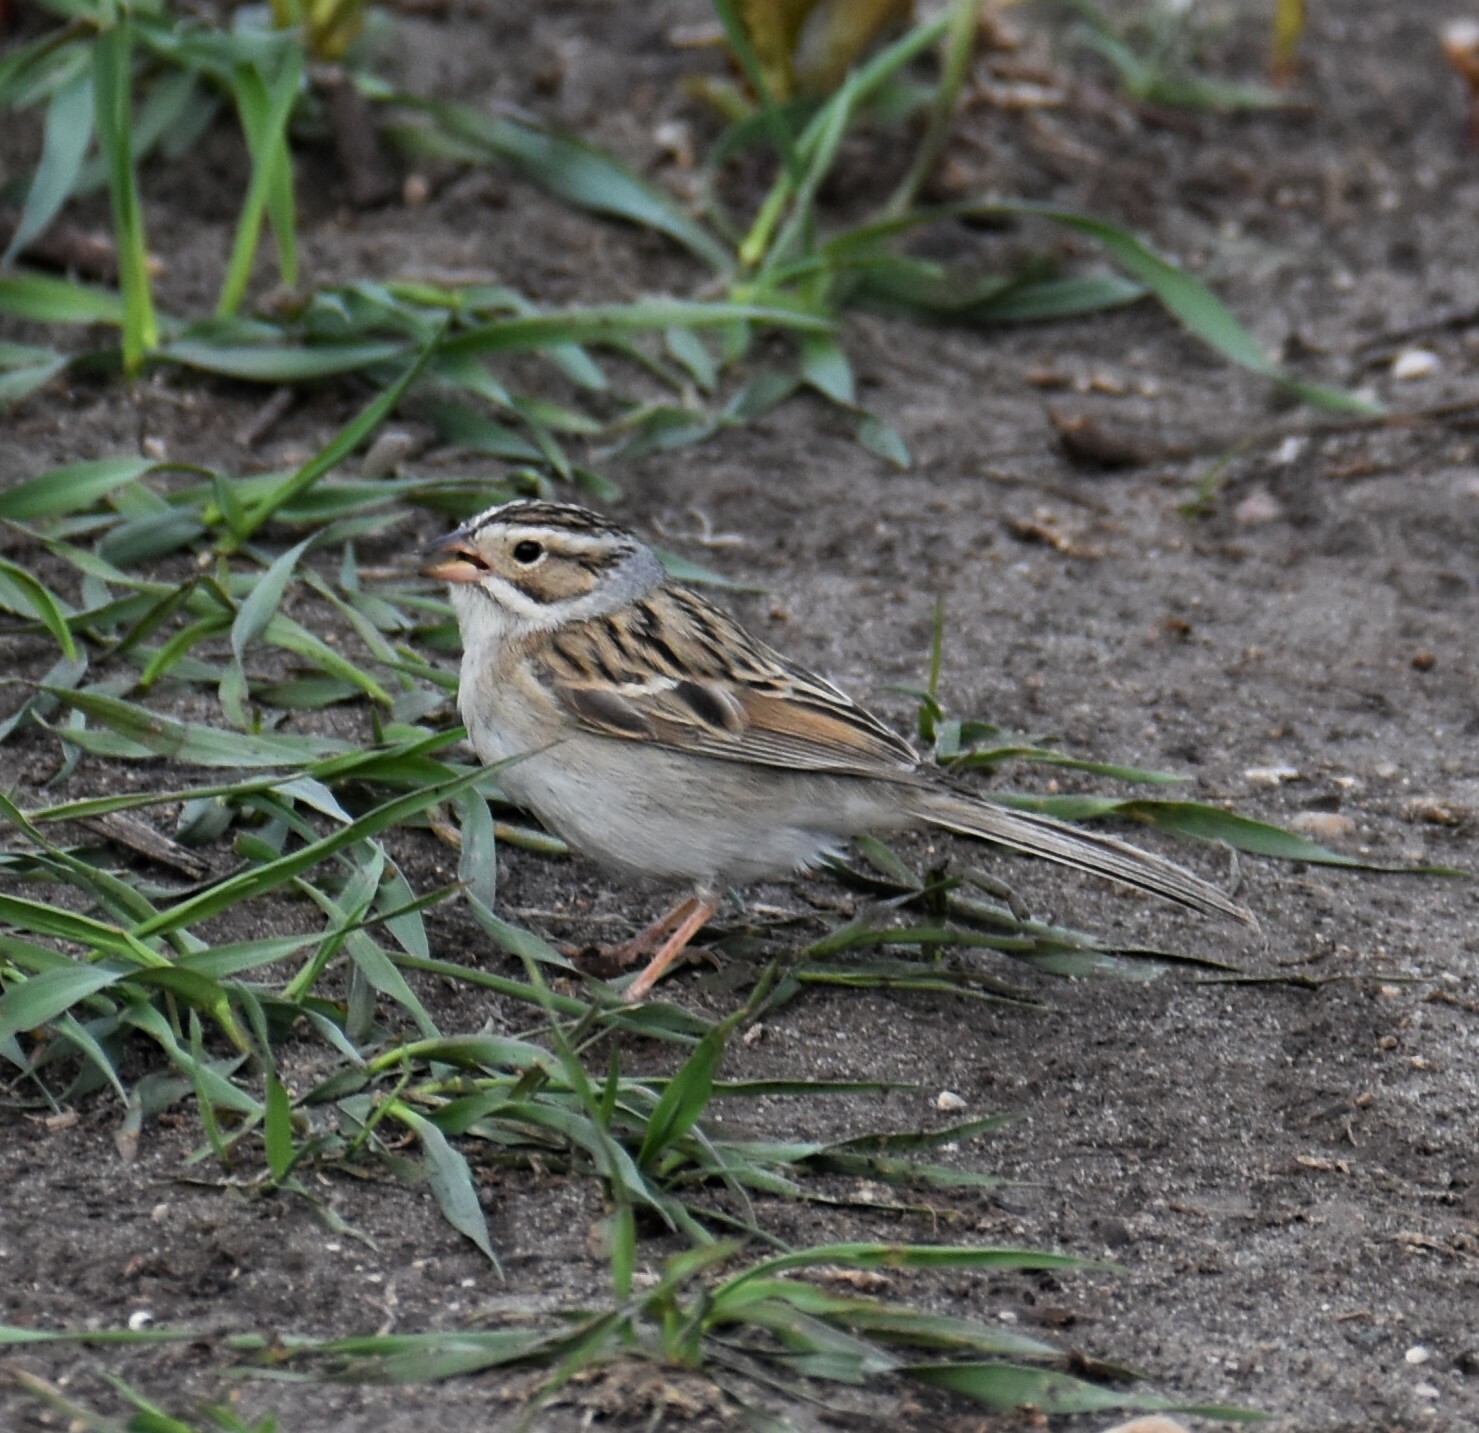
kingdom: Animalia
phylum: Chordata
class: Aves
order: Passeriformes
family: Passerellidae
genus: Spizella
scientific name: Spizella pallida
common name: Clay-colored sparrow
